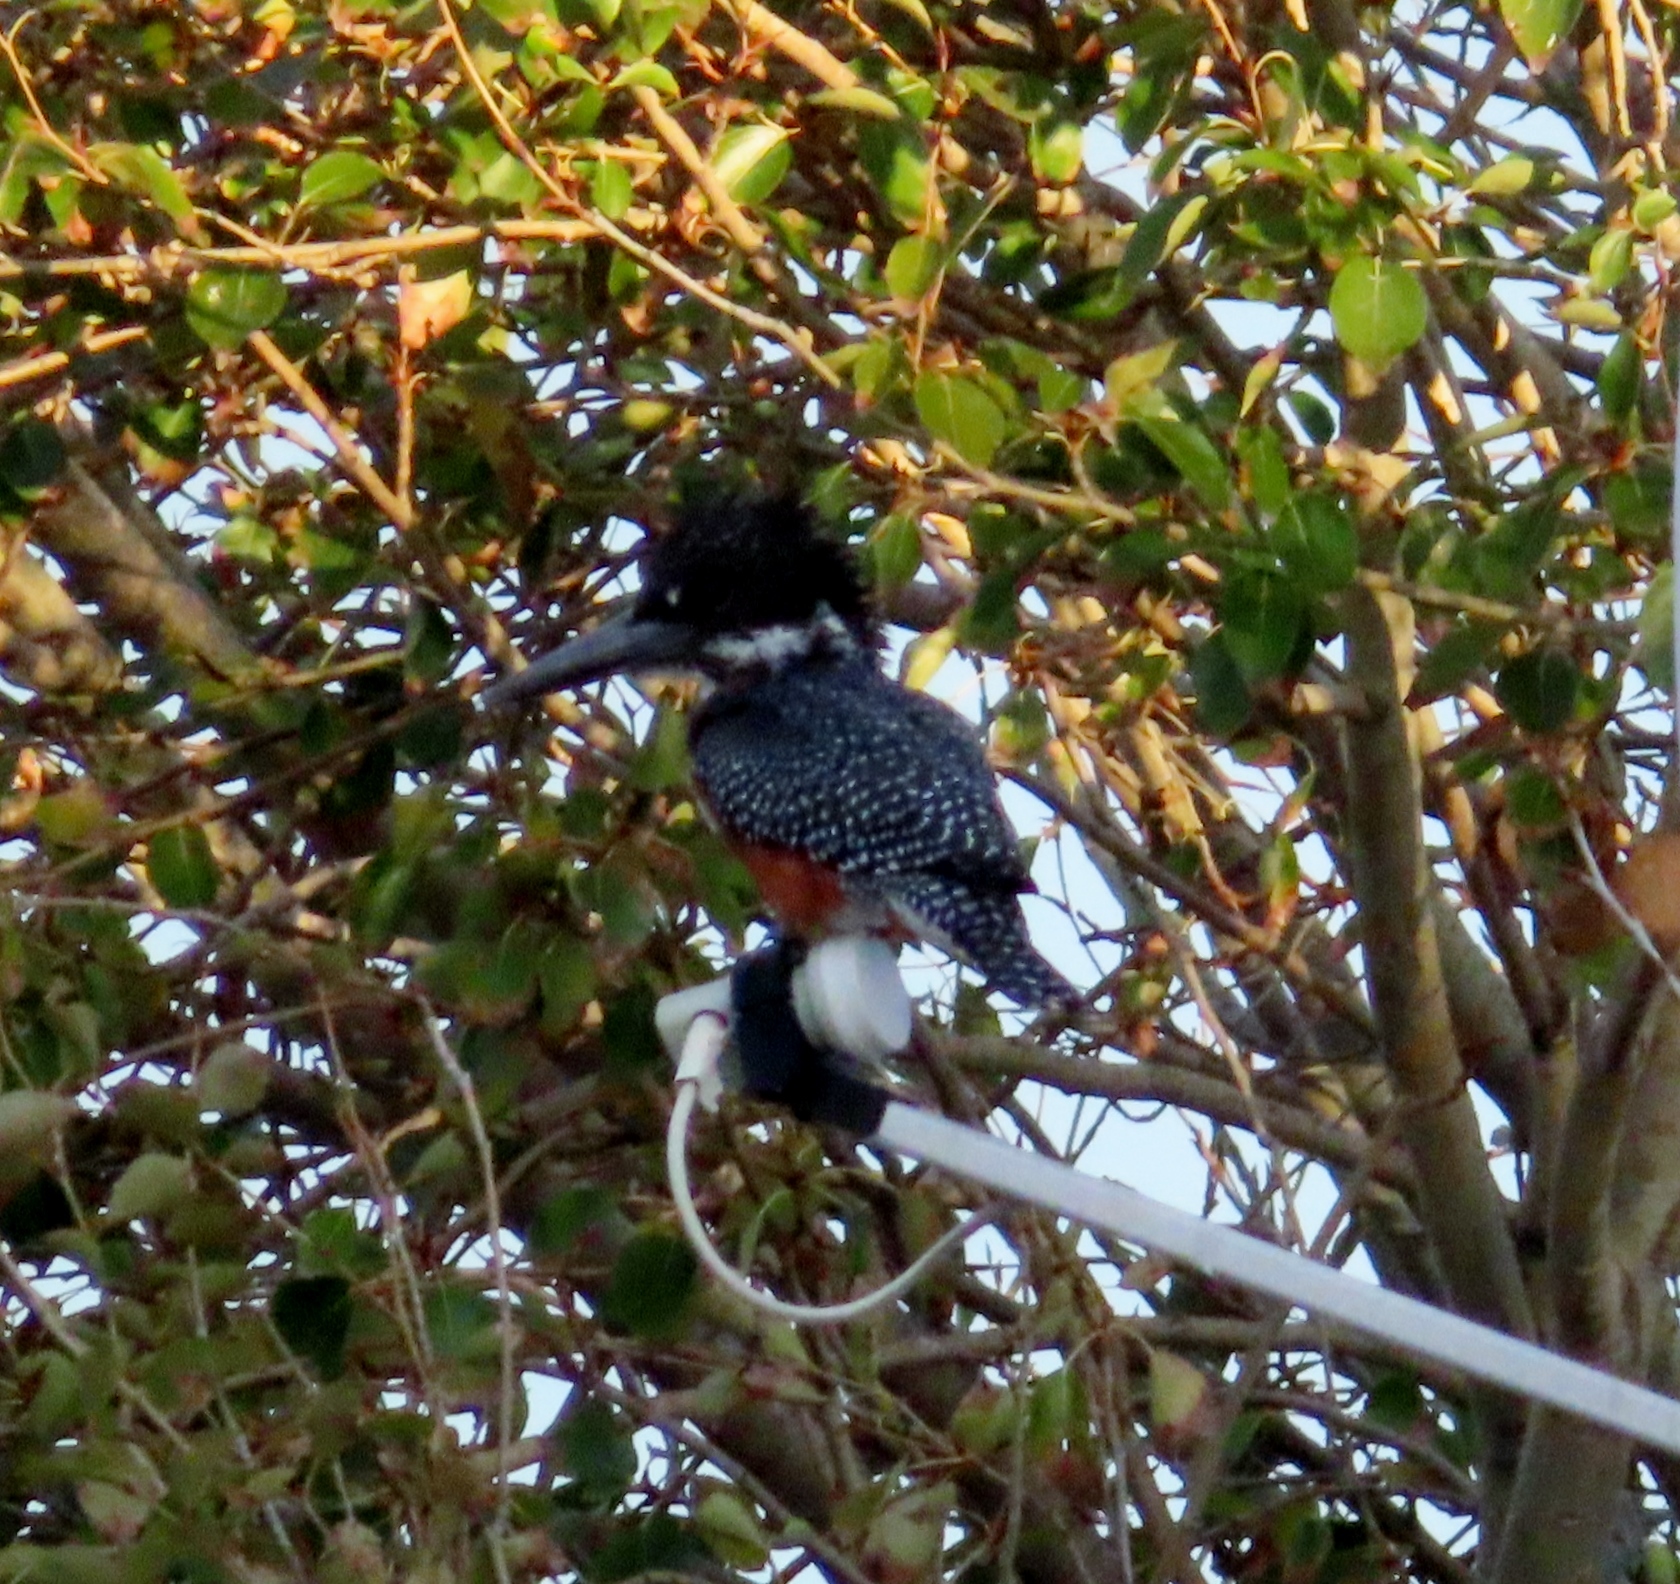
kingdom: Animalia
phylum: Chordata
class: Aves
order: Coraciiformes
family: Alcedinidae
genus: Megaceryle
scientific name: Megaceryle maxima
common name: Giant kingfisher
